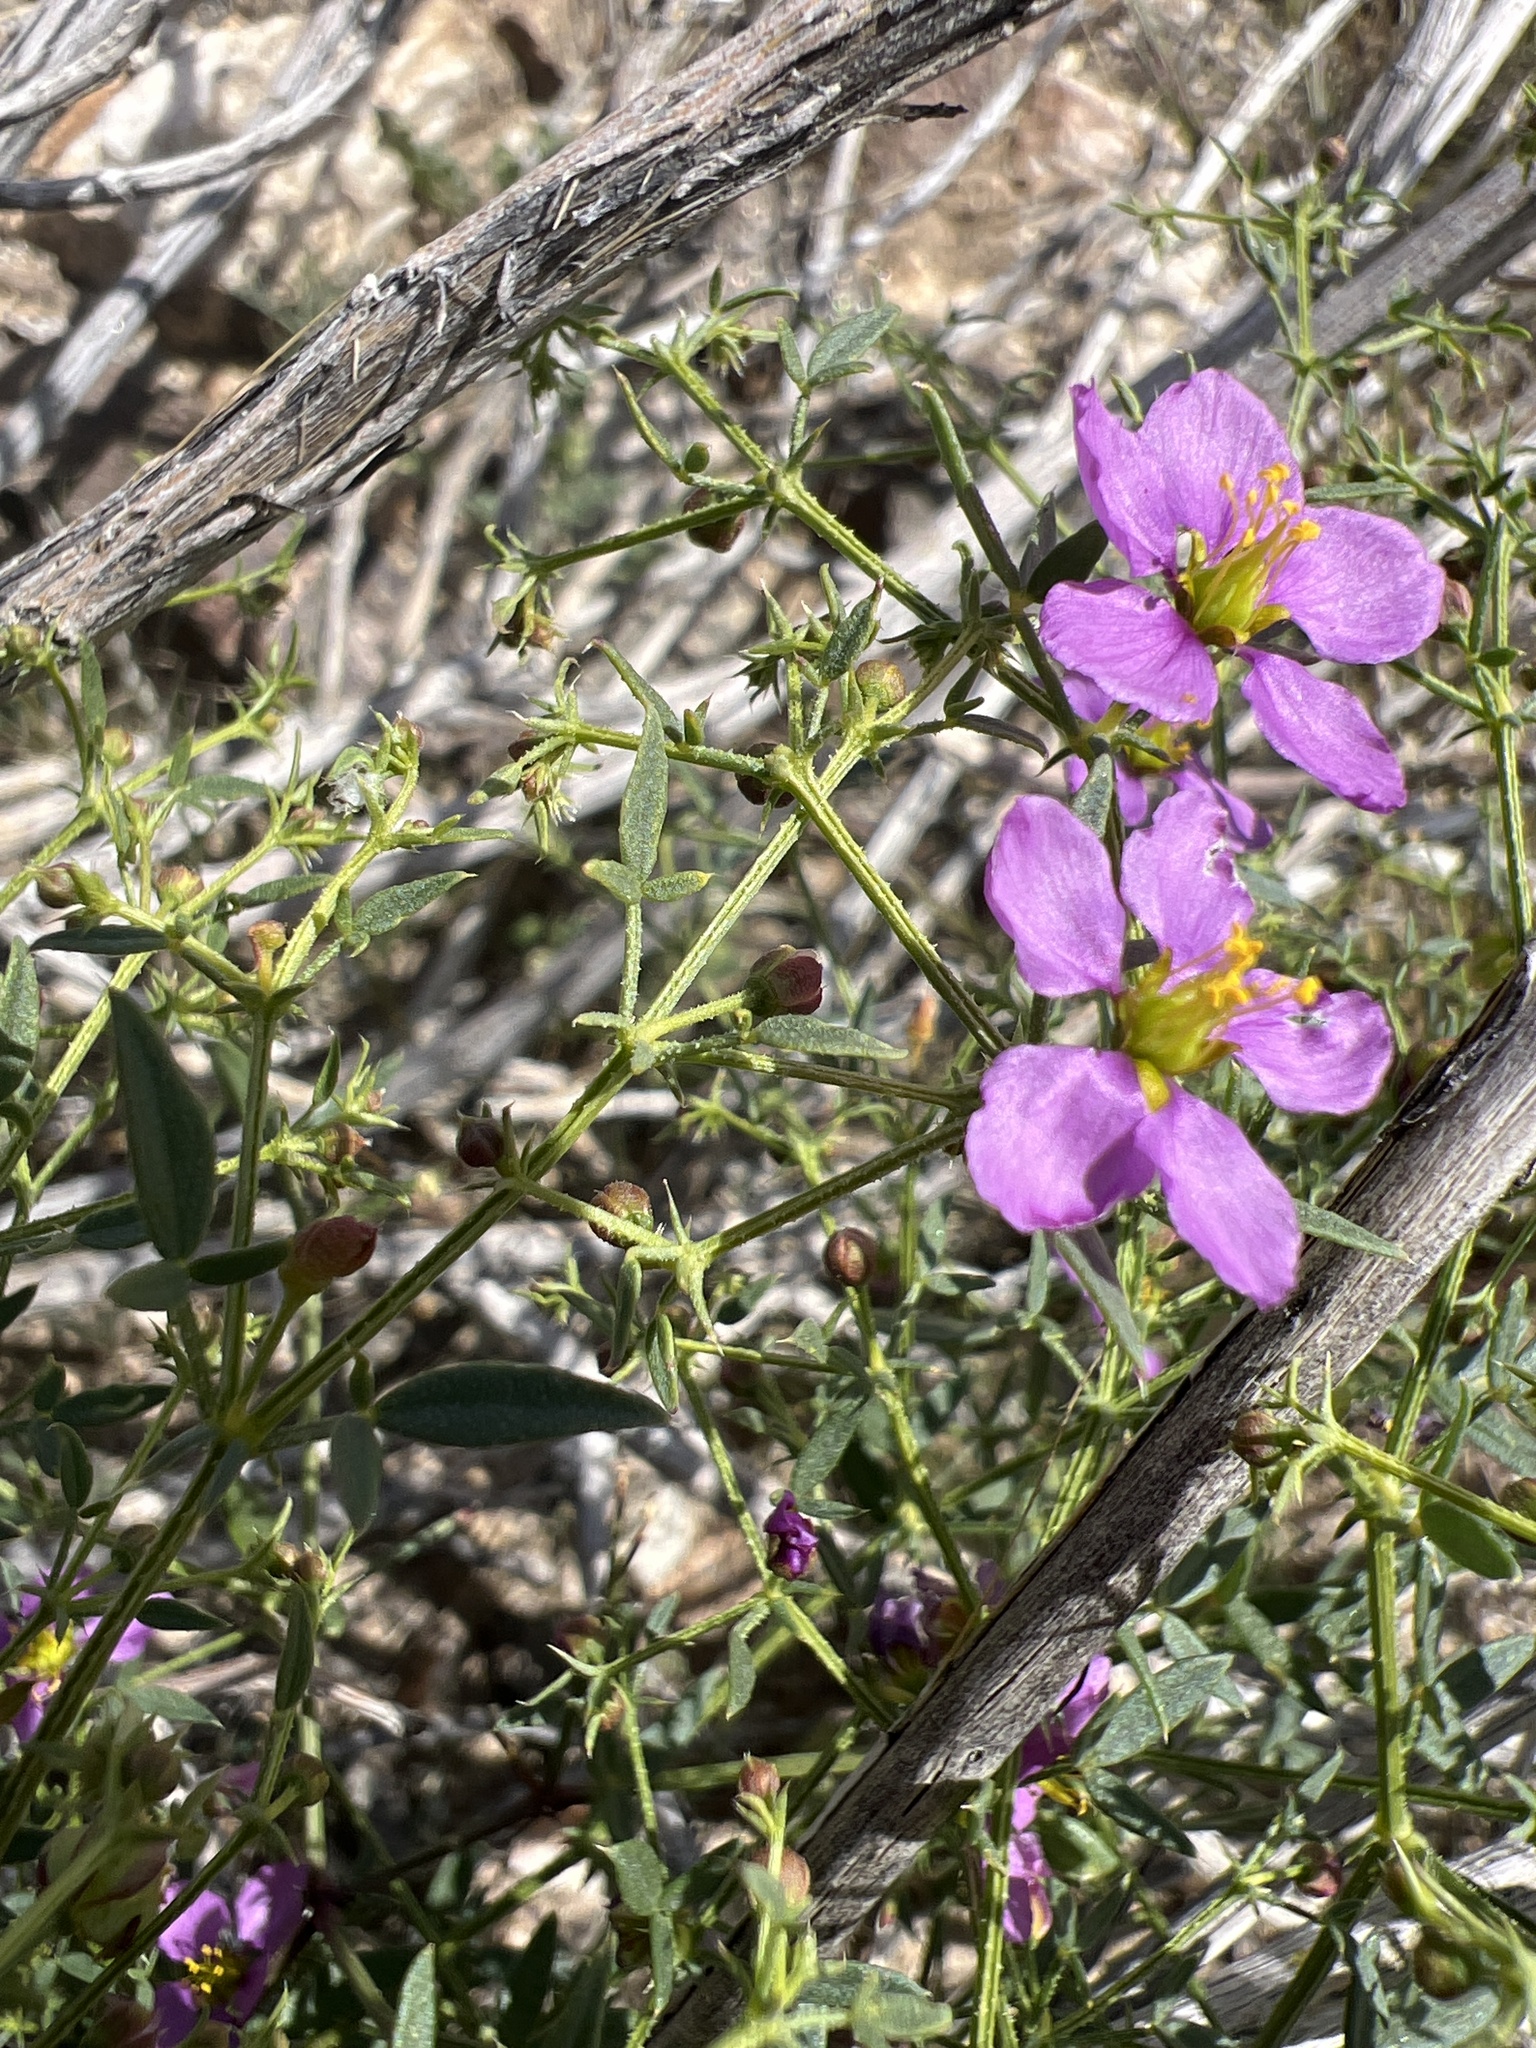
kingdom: Plantae
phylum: Tracheophyta
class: Magnoliopsida
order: Zygophyllales
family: Zygophyllaceae
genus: Fagonia
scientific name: Fagonia laevis
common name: California fagonbush
